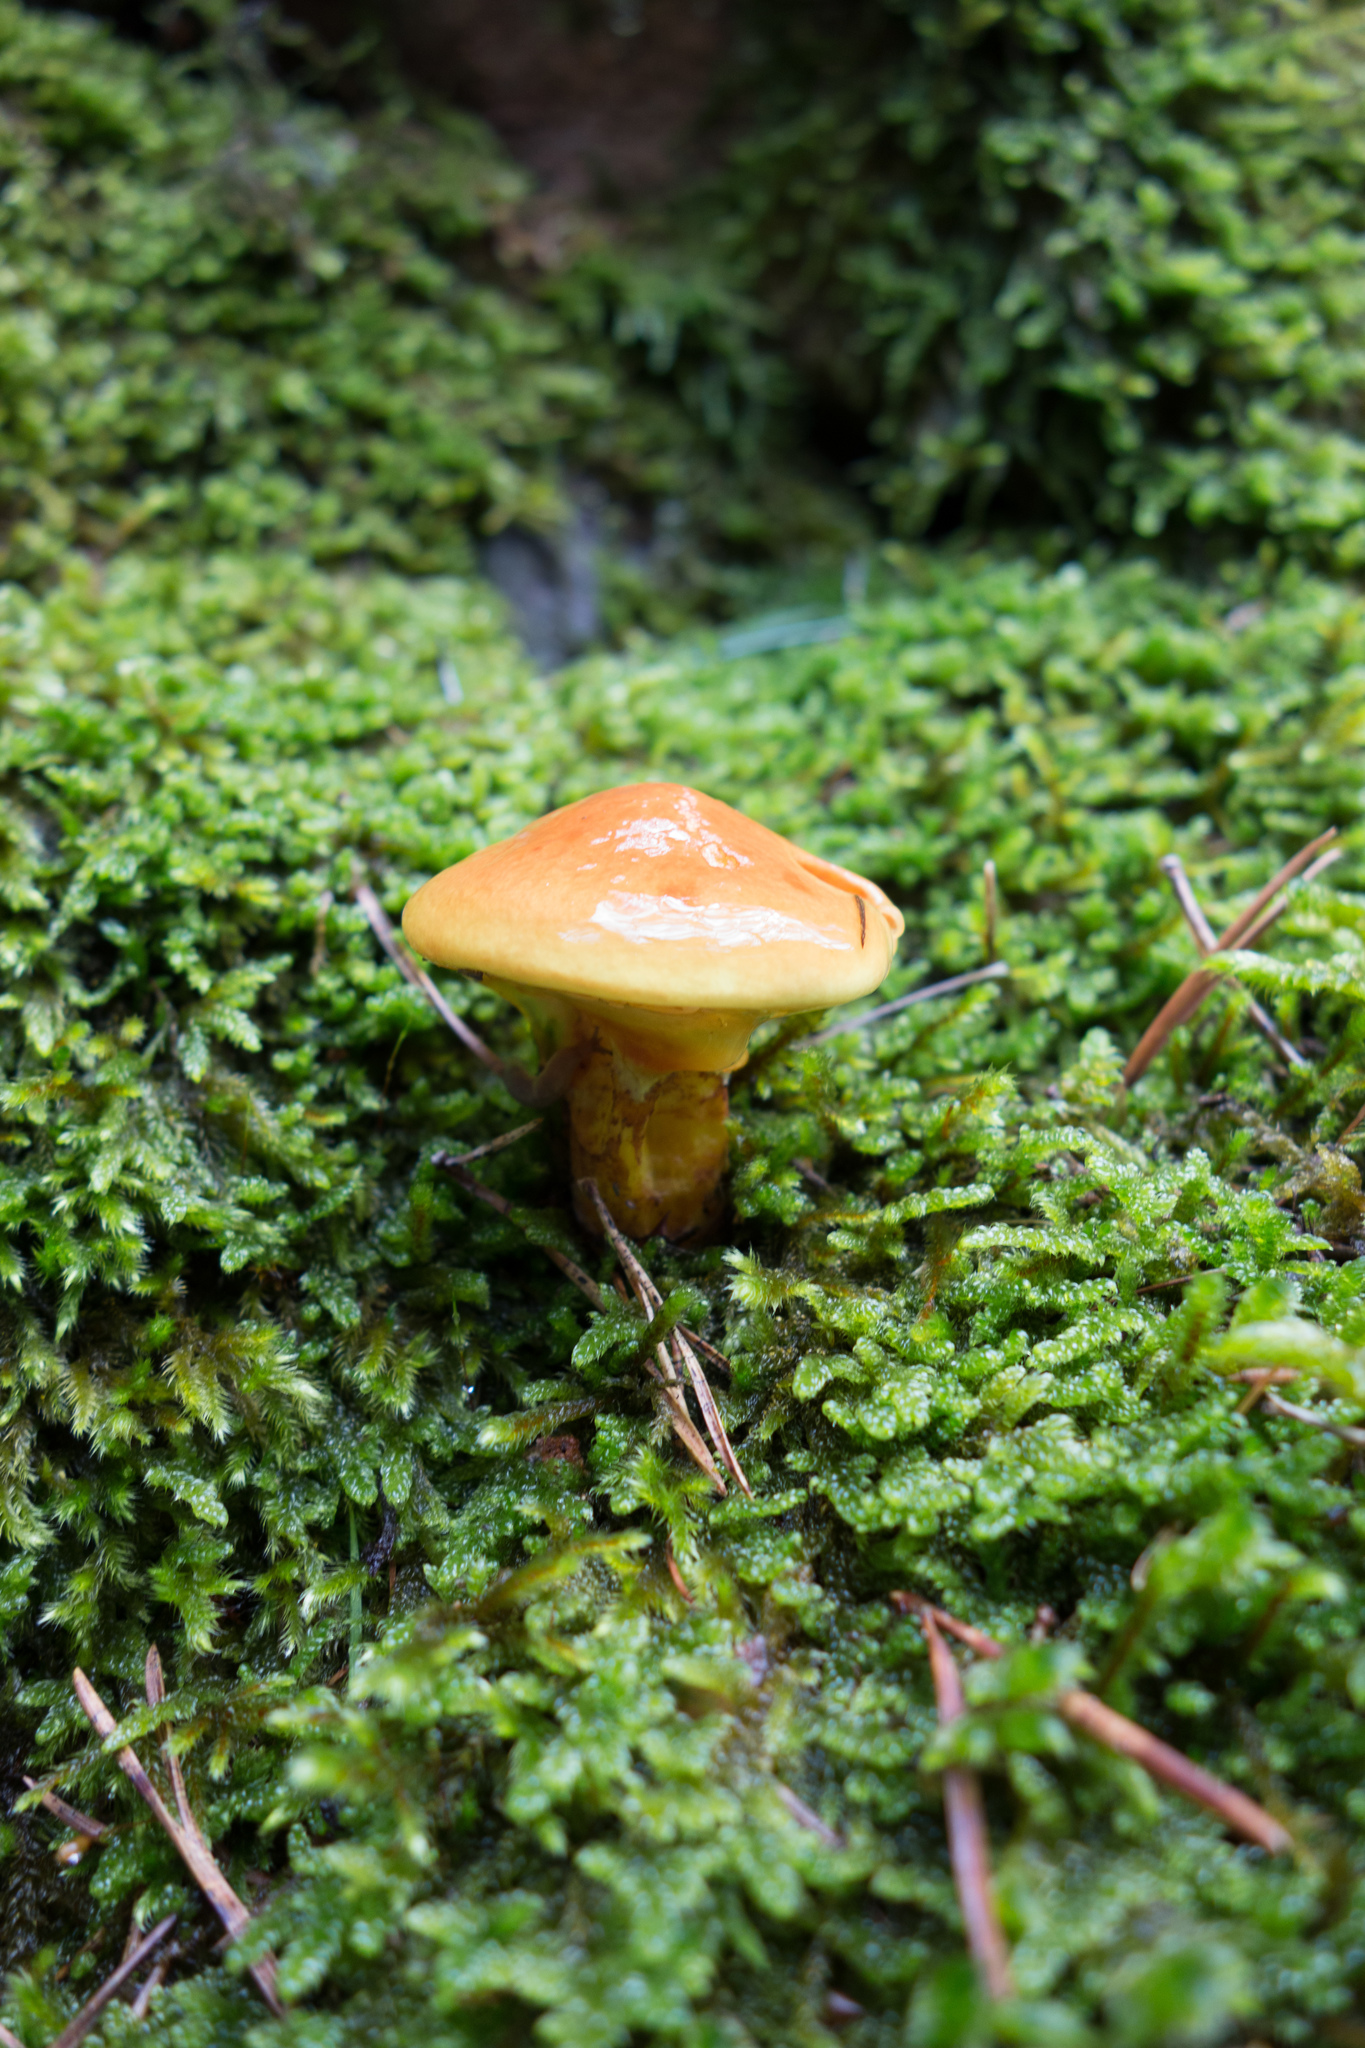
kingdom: Fungi
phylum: Basidiomycota
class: Agaricomycetes
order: Boletales
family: Suillaceae
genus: Suillus
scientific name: Suillus grevillei
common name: Larch bolete
